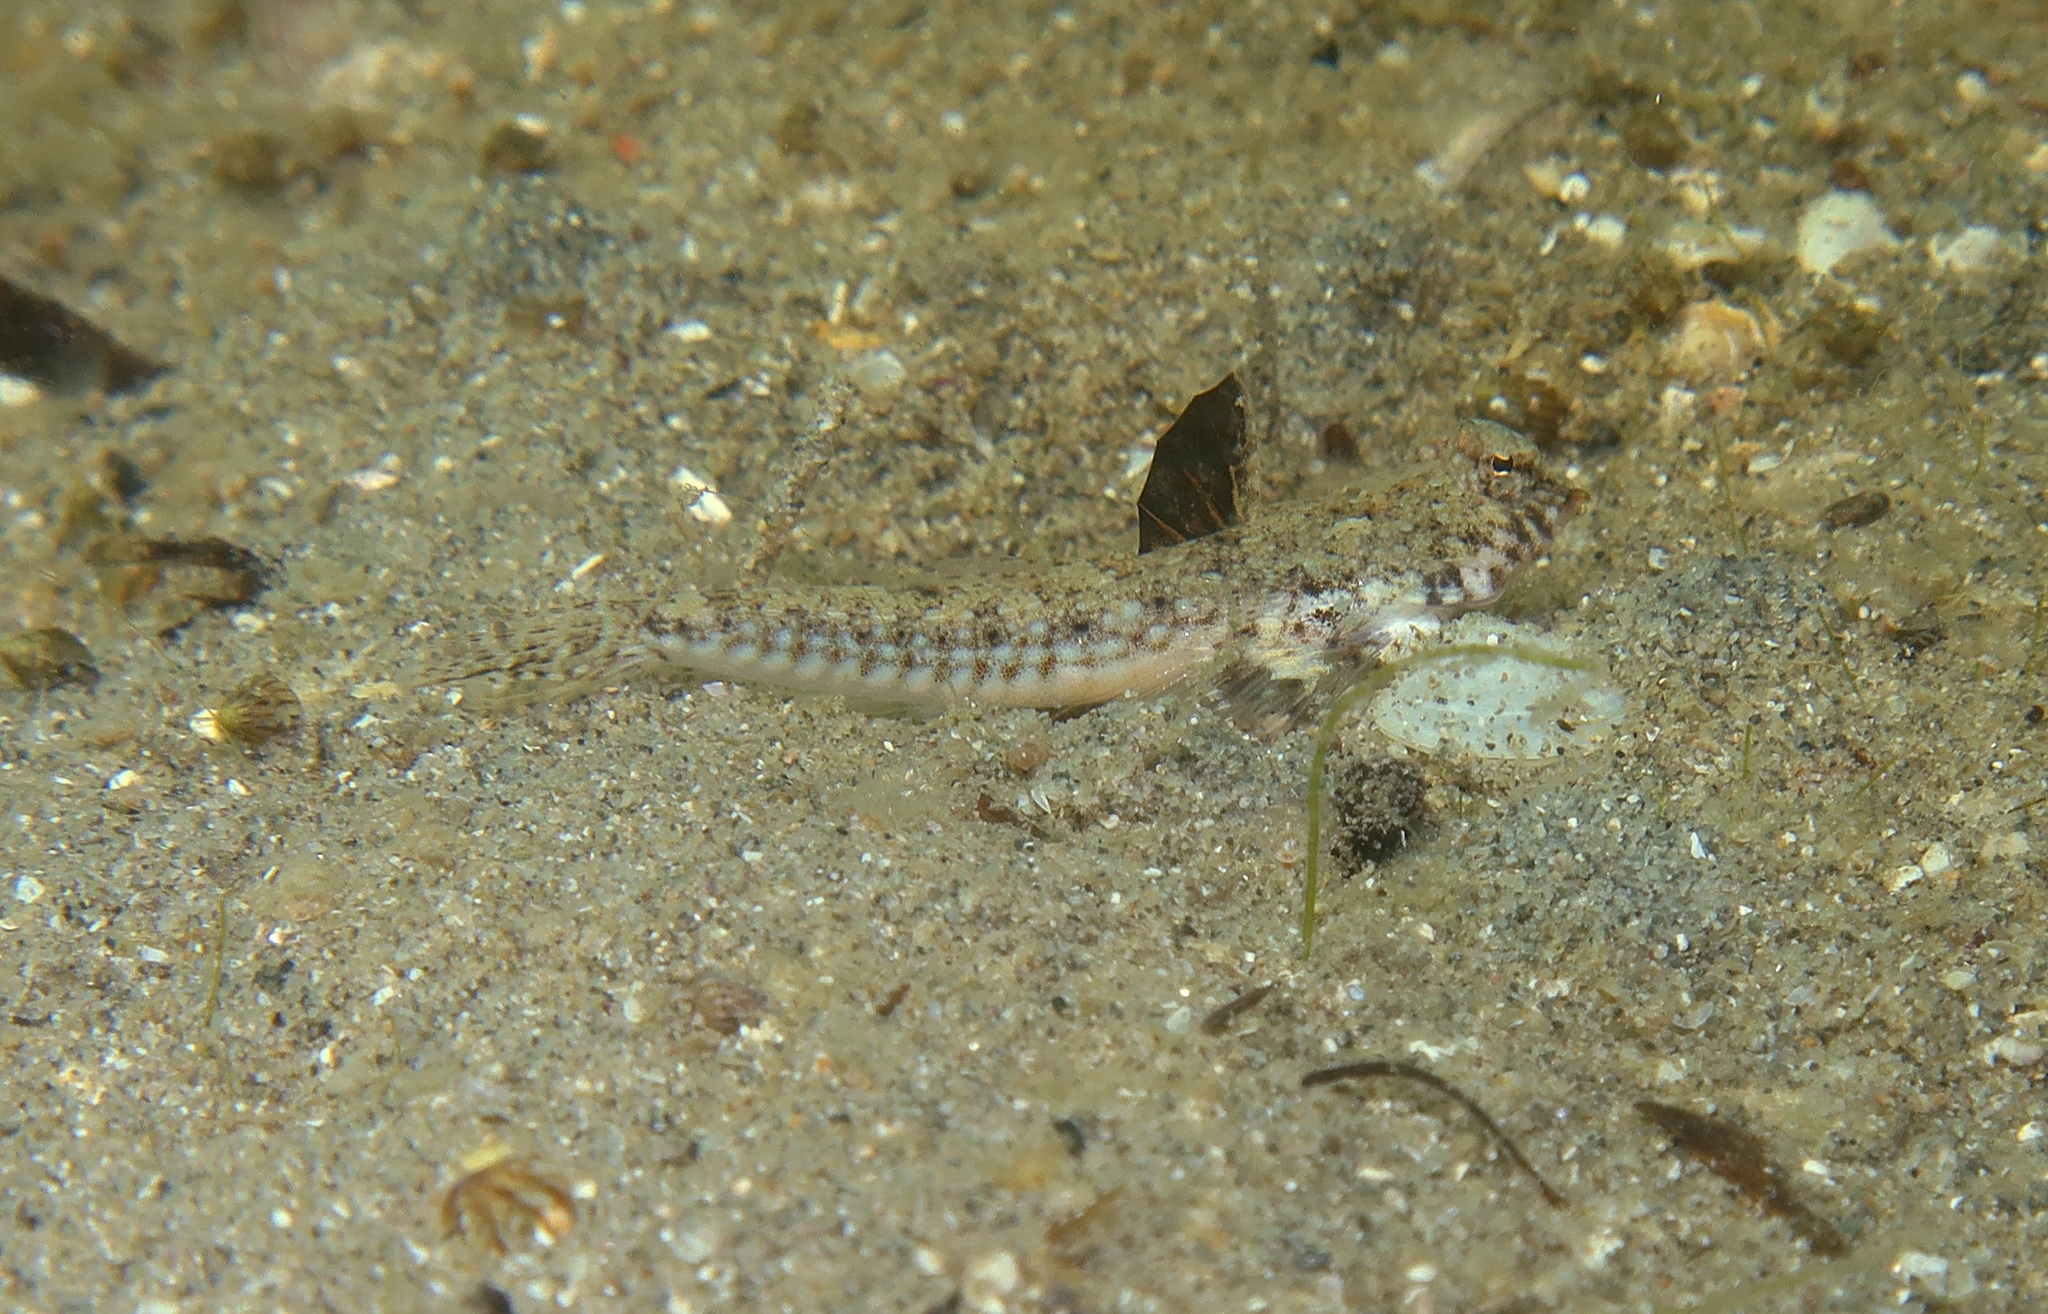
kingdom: Animalia
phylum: Chordata
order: Perciformes
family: Callionymidae
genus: Callionymus
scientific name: Callionymus pusillus
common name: Sailfin dragonet
